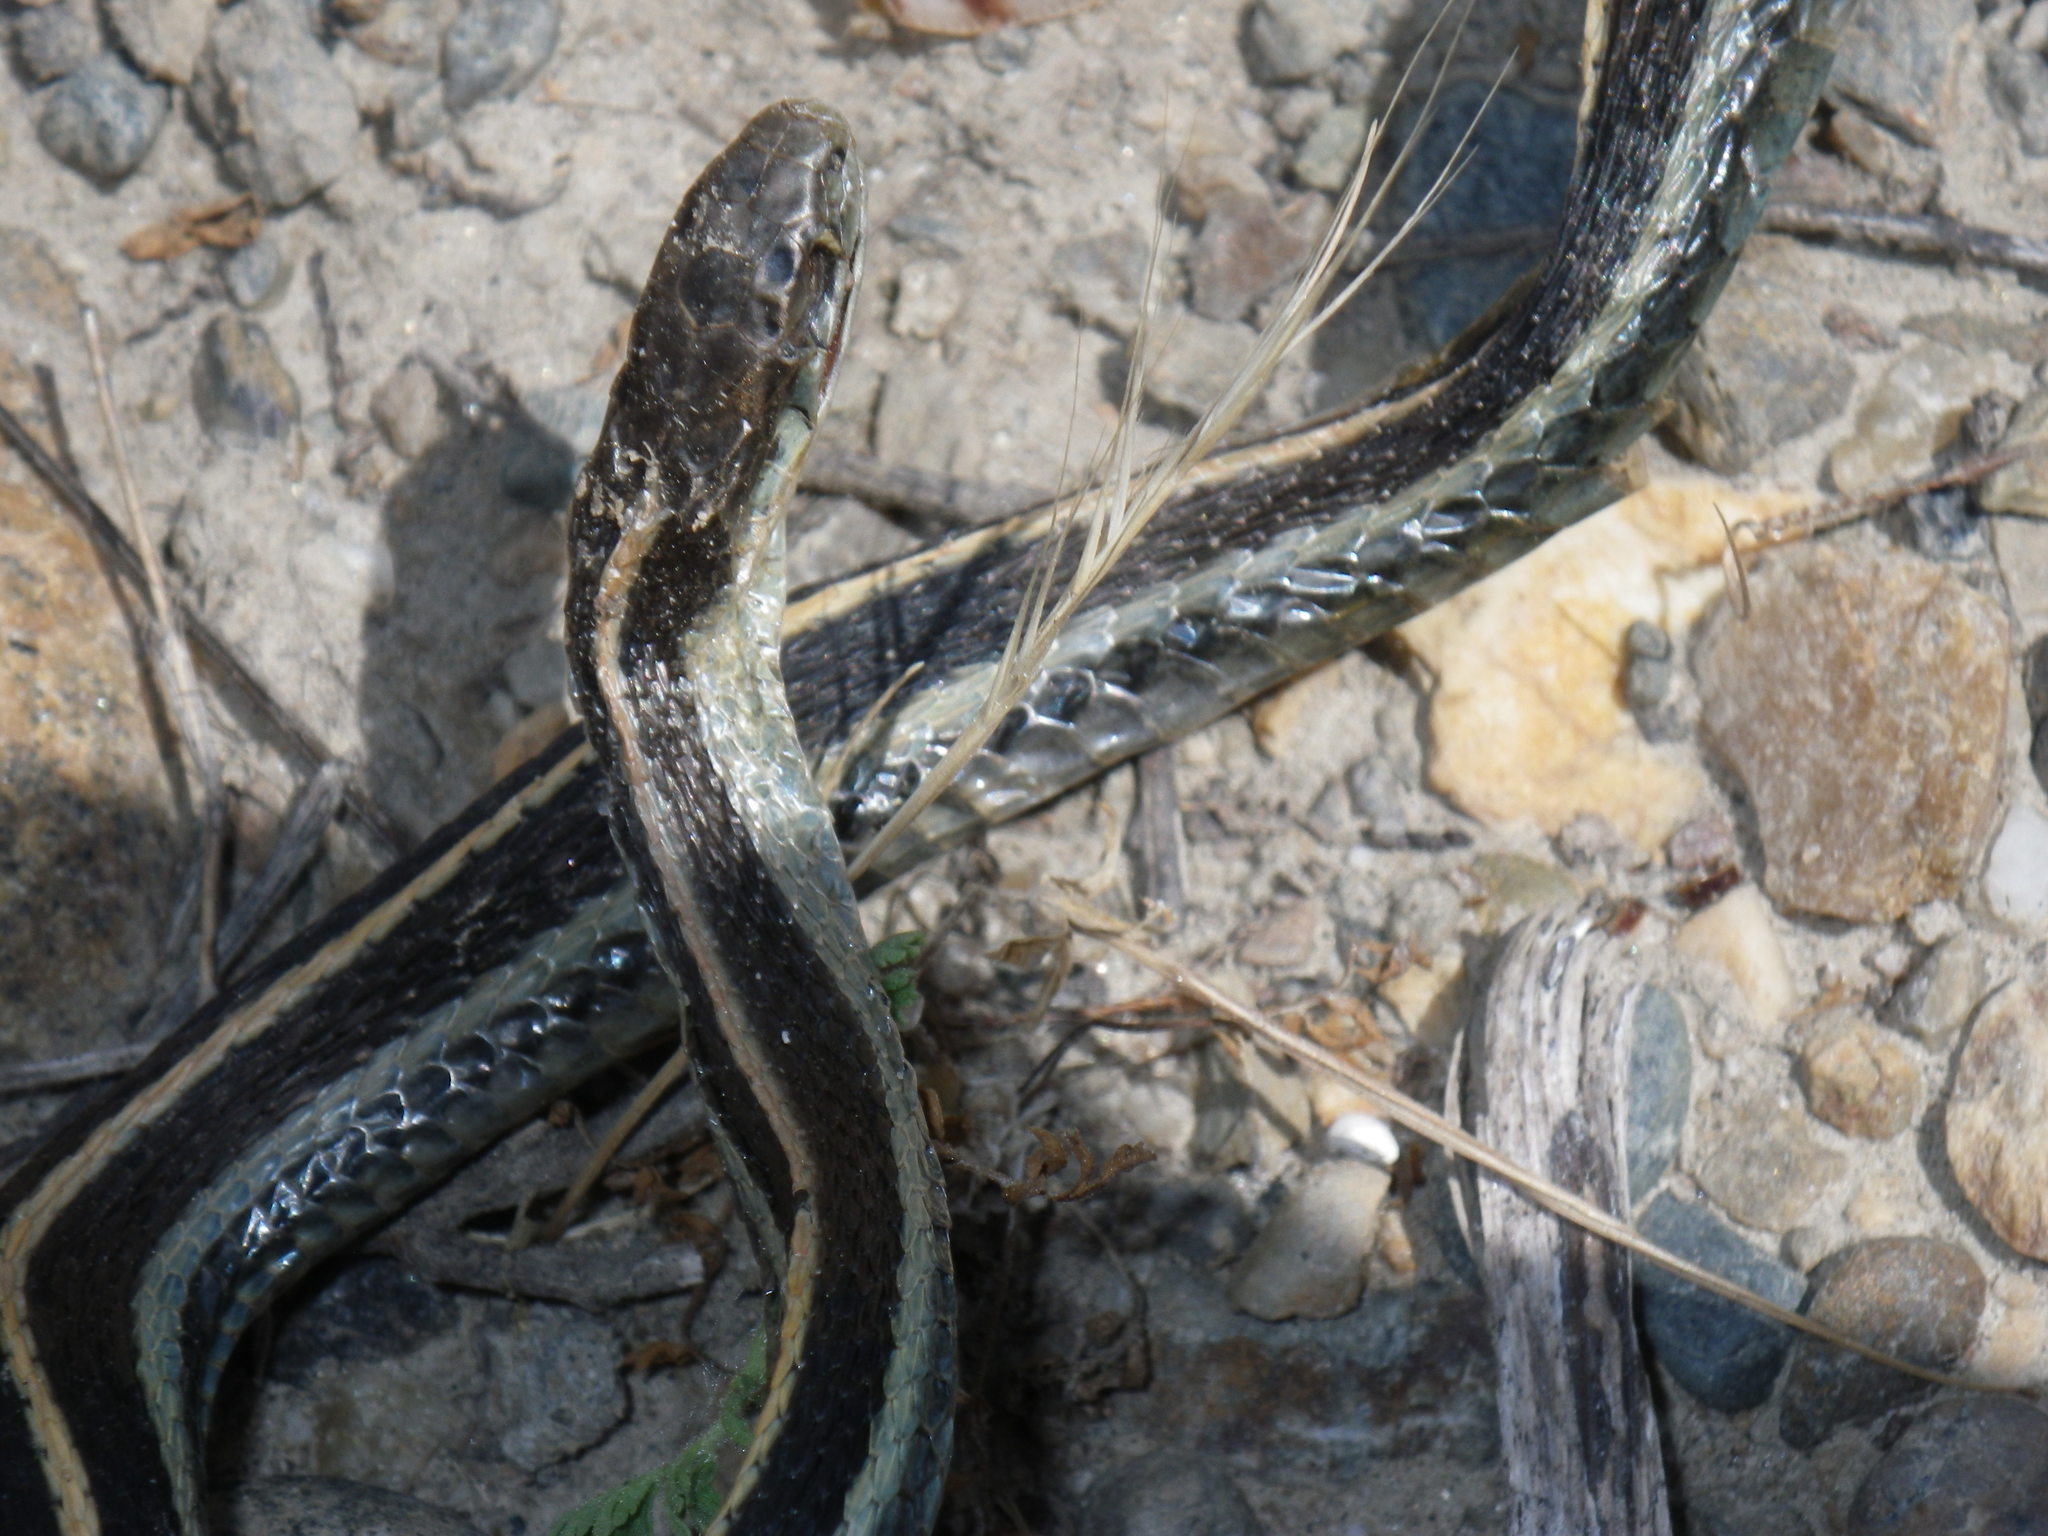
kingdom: Animalia
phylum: Chordata
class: Squamata
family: Colubridae
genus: Thamnophis
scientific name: Thamnophis elegans
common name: Western terrestrial garter snake
